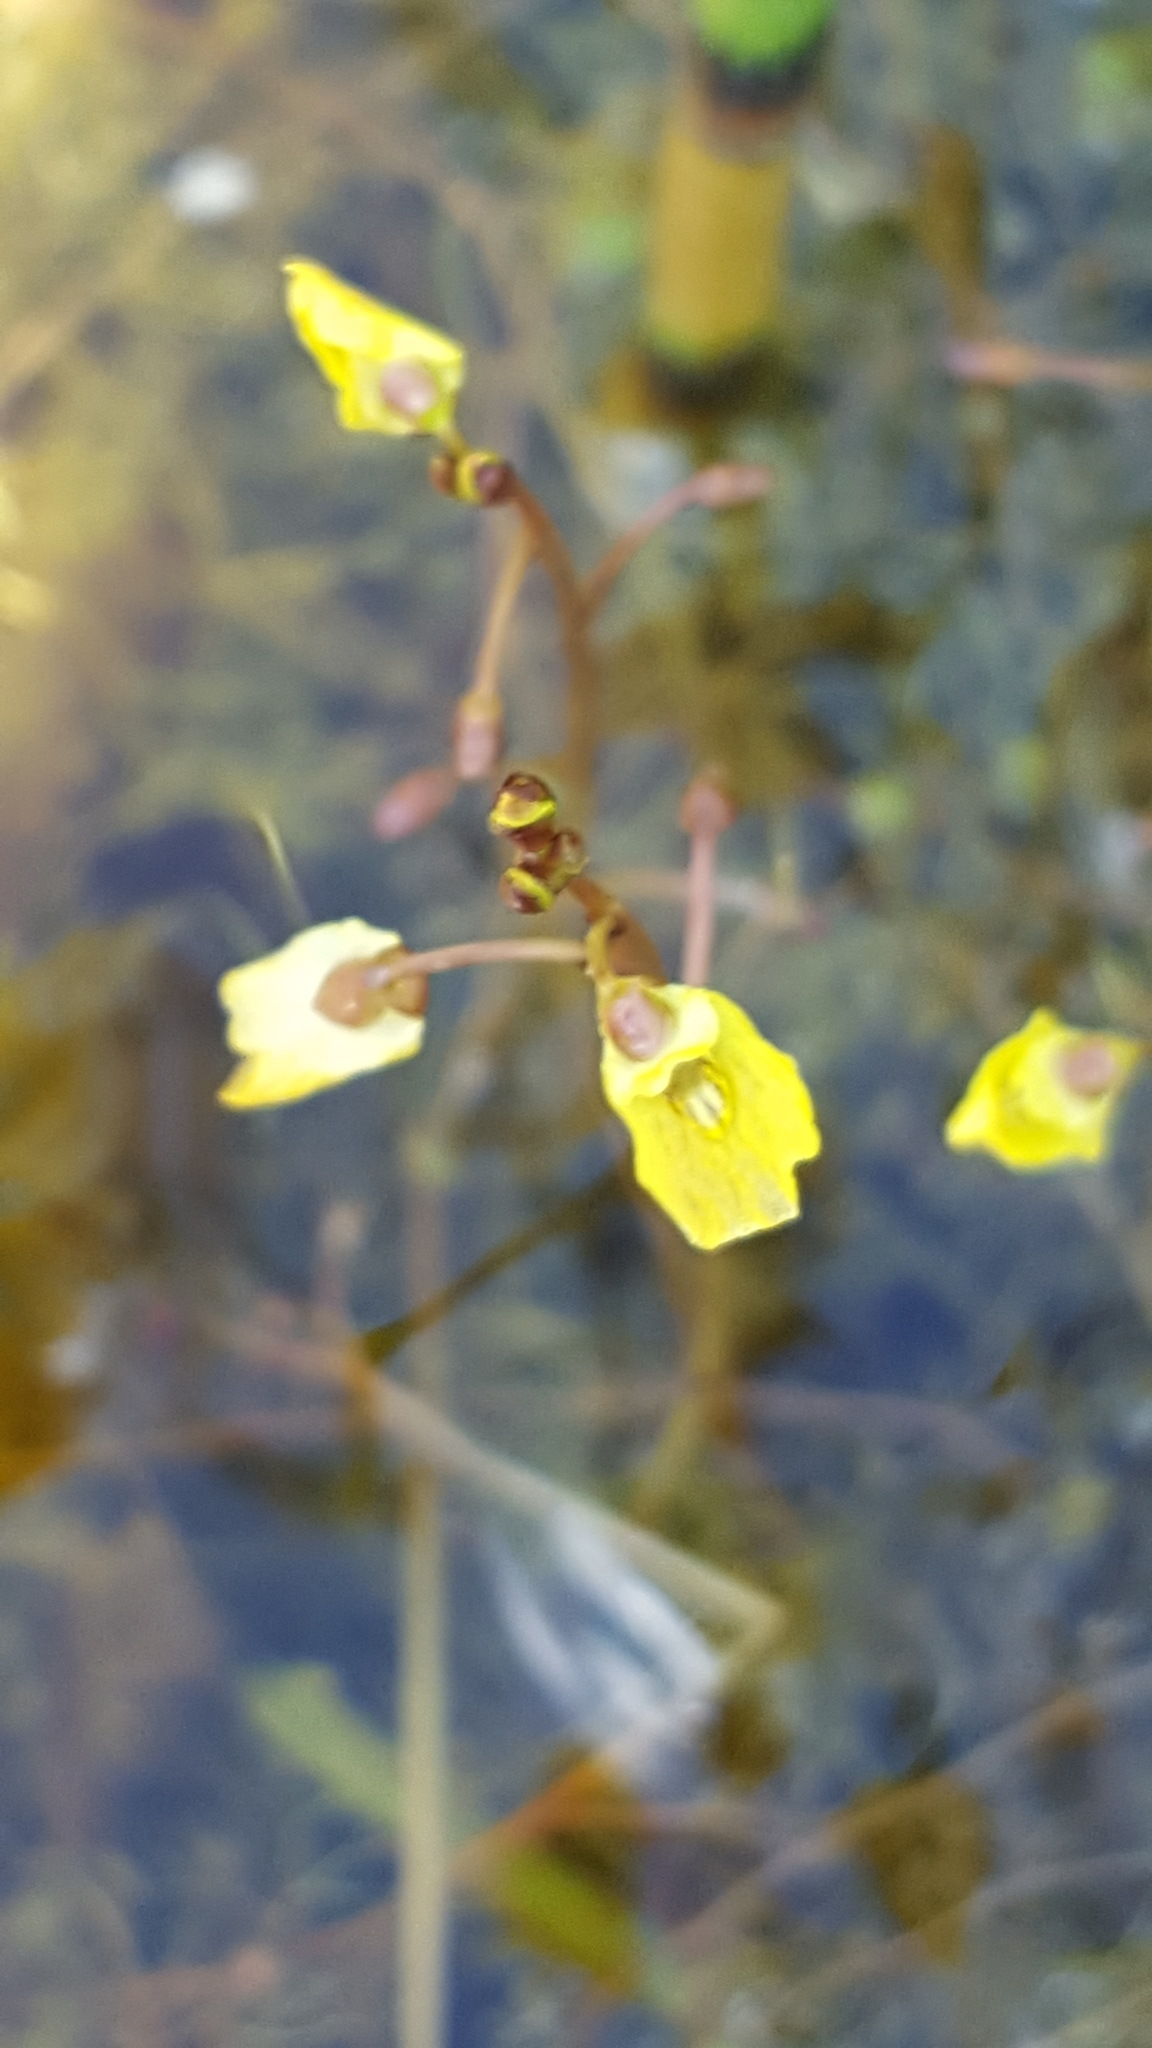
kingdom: Plantae
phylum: Tracheophyta
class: Magnoliopsida
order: Lamiales
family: Lentibulariaceae
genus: Utricularia
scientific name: Utricularia minor
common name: Lesser bladderwort
